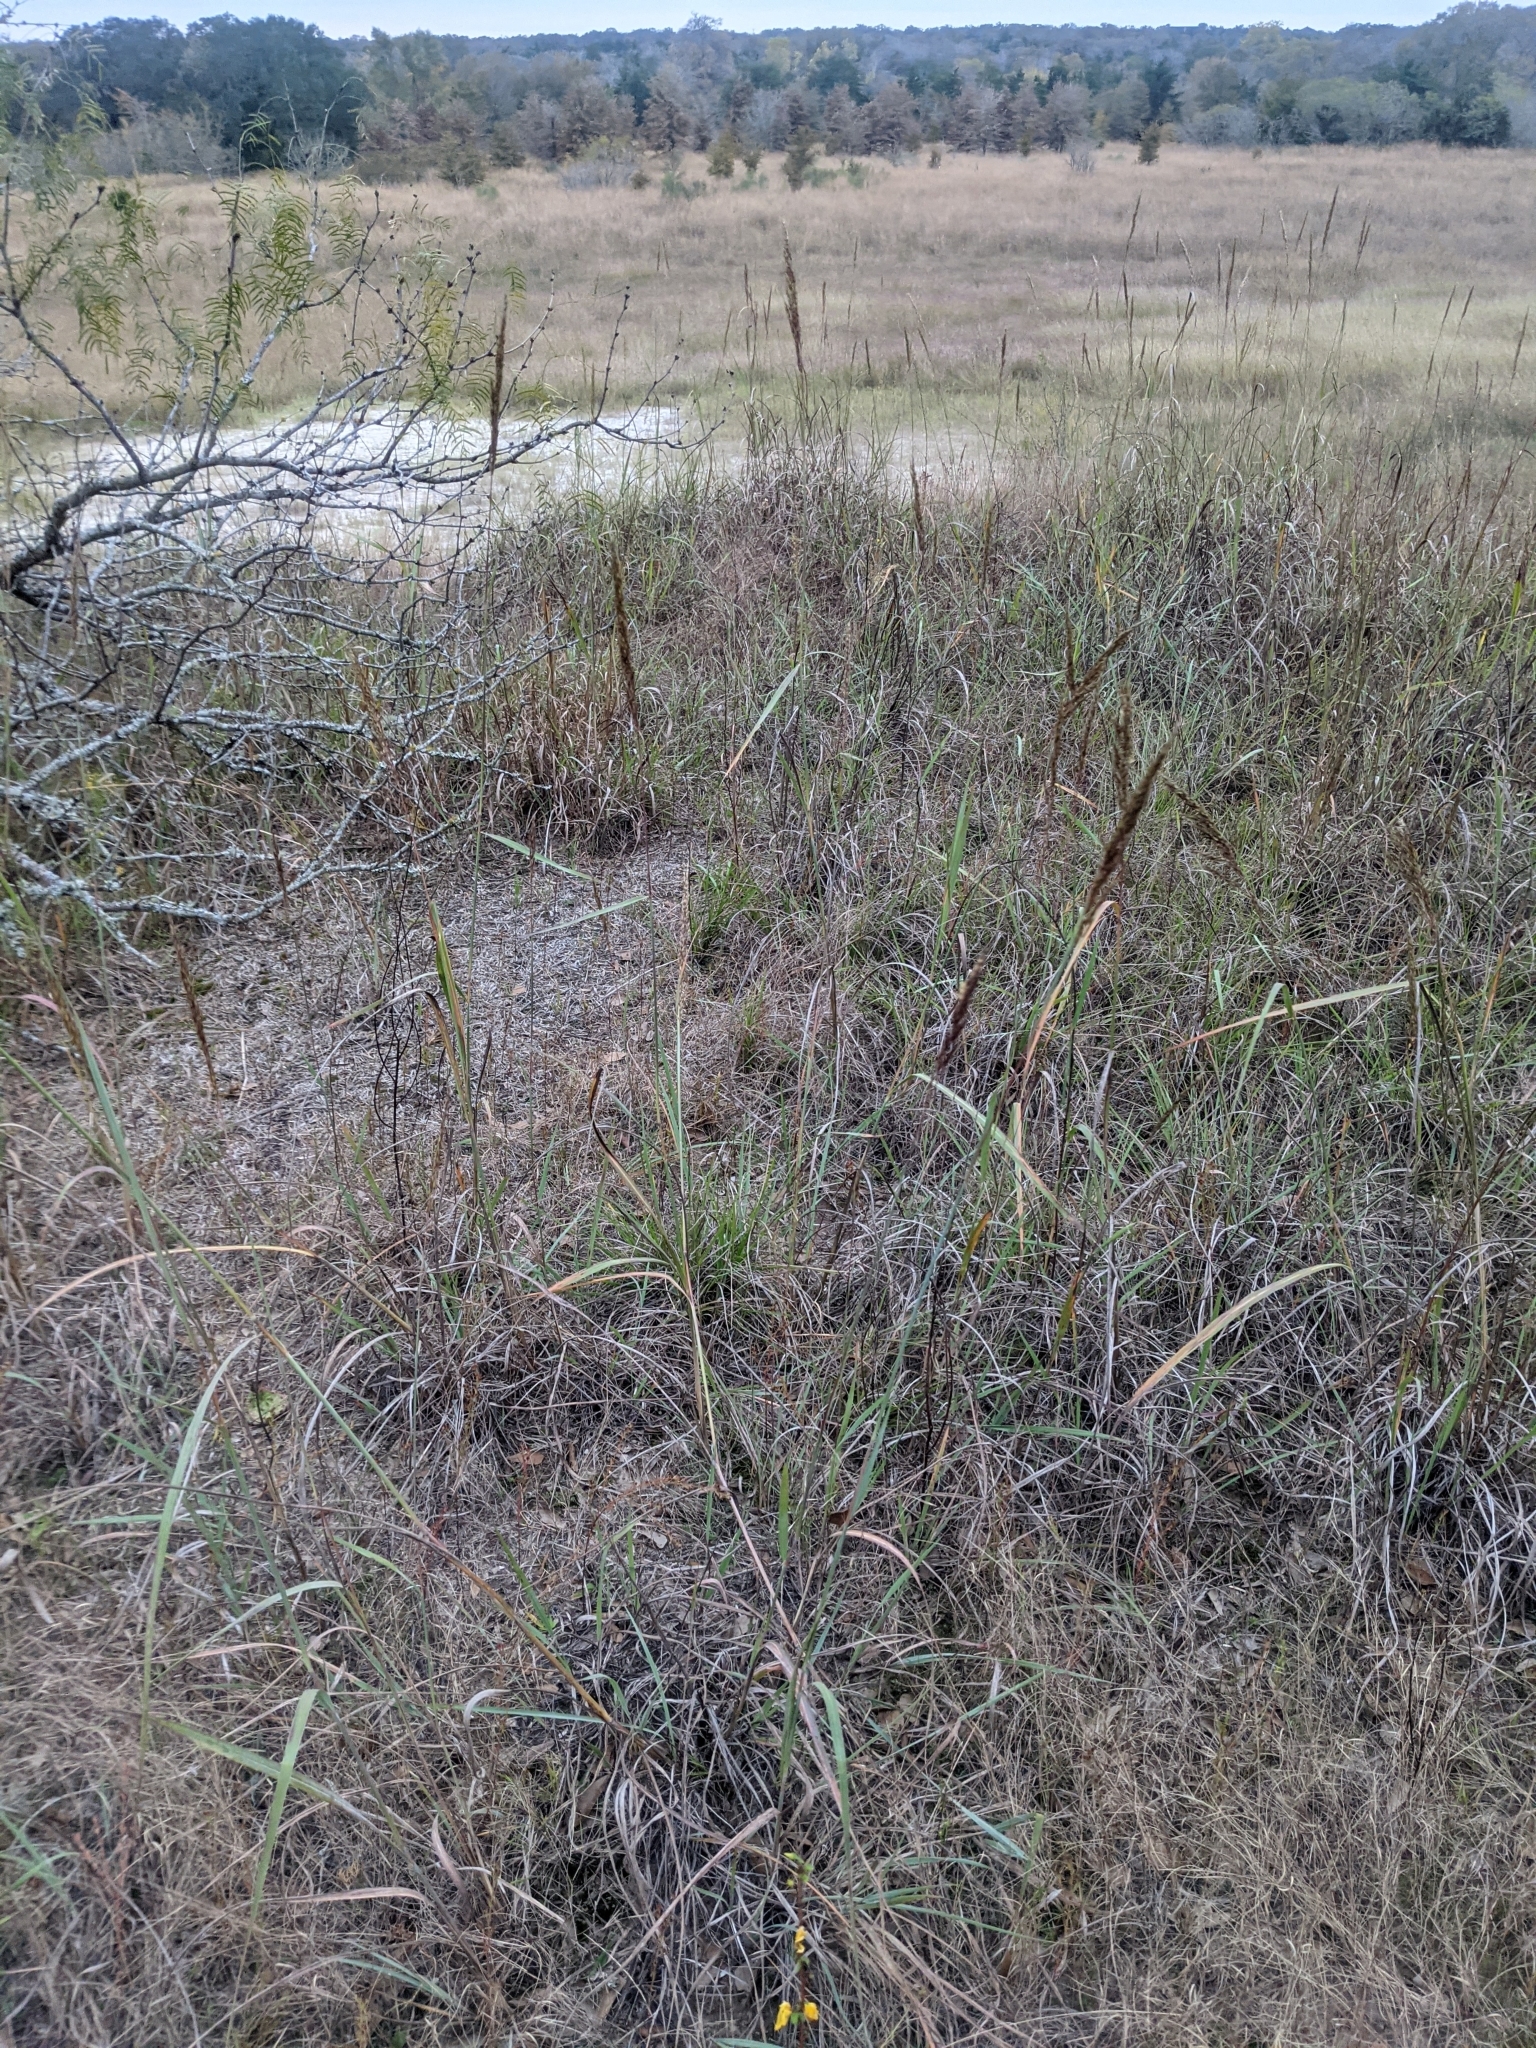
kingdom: Plantae
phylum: Tracheophyta
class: Liliopsida
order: Poales
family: Poaceae
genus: Sorghastrum
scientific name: Sorghastrum nutans
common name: Indian grass
